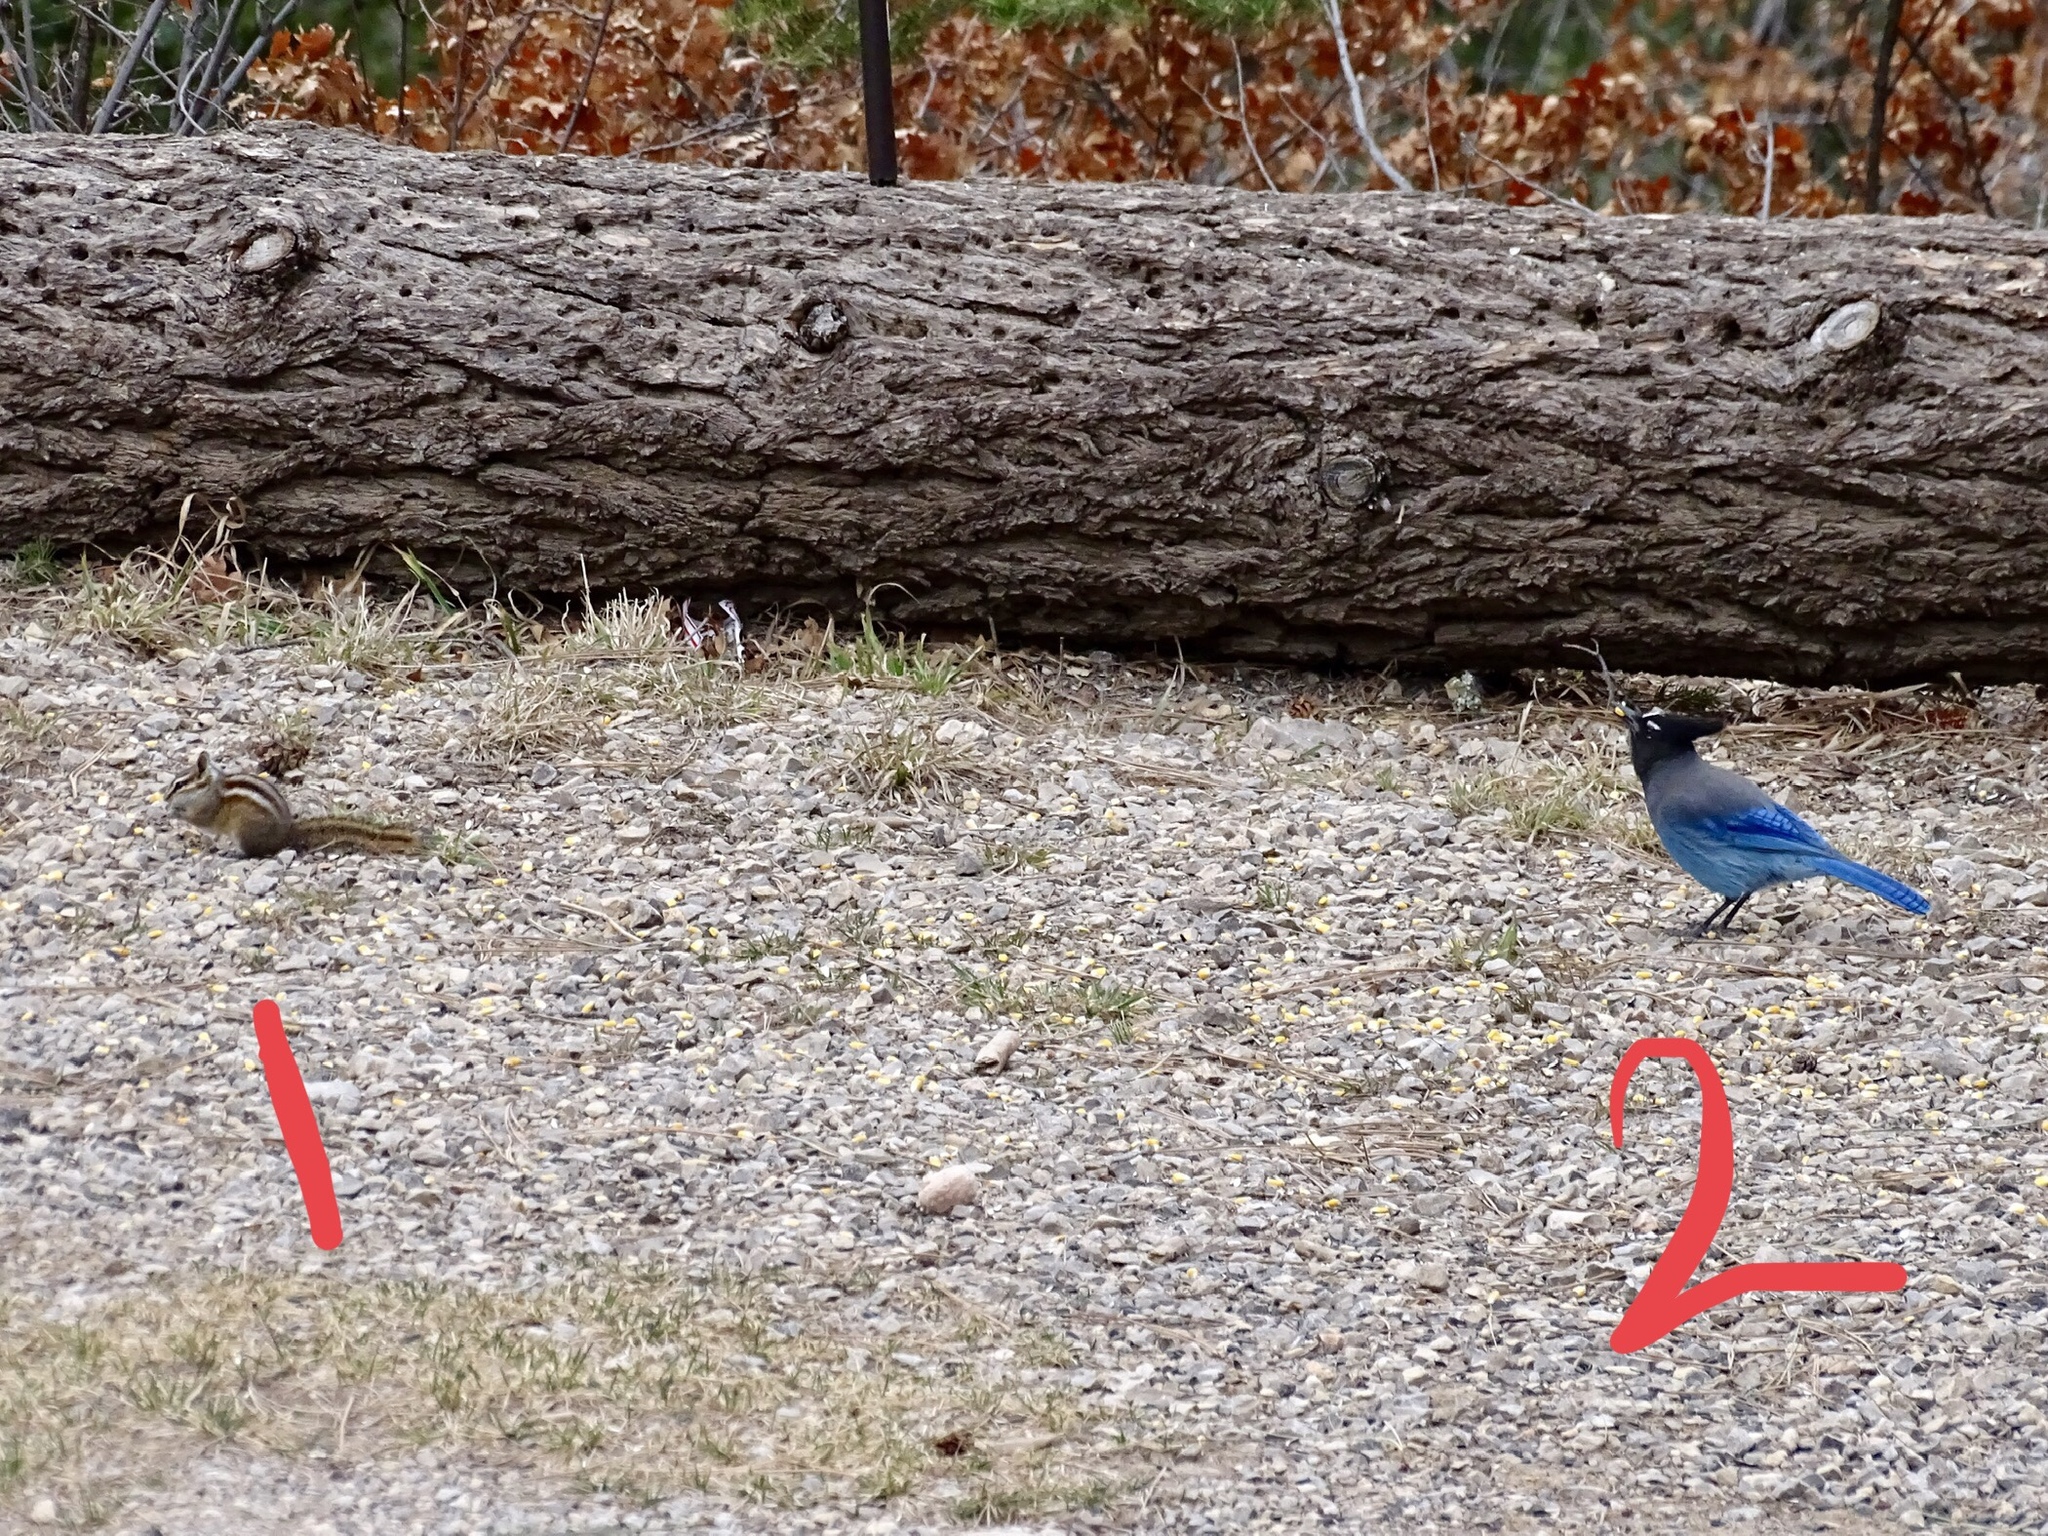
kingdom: Animalia
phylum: Chordata
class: Aves
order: Passeriformes
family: Corvidae
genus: Cyanocitta
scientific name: Cyanocitta stelleri
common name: Steller's jay
